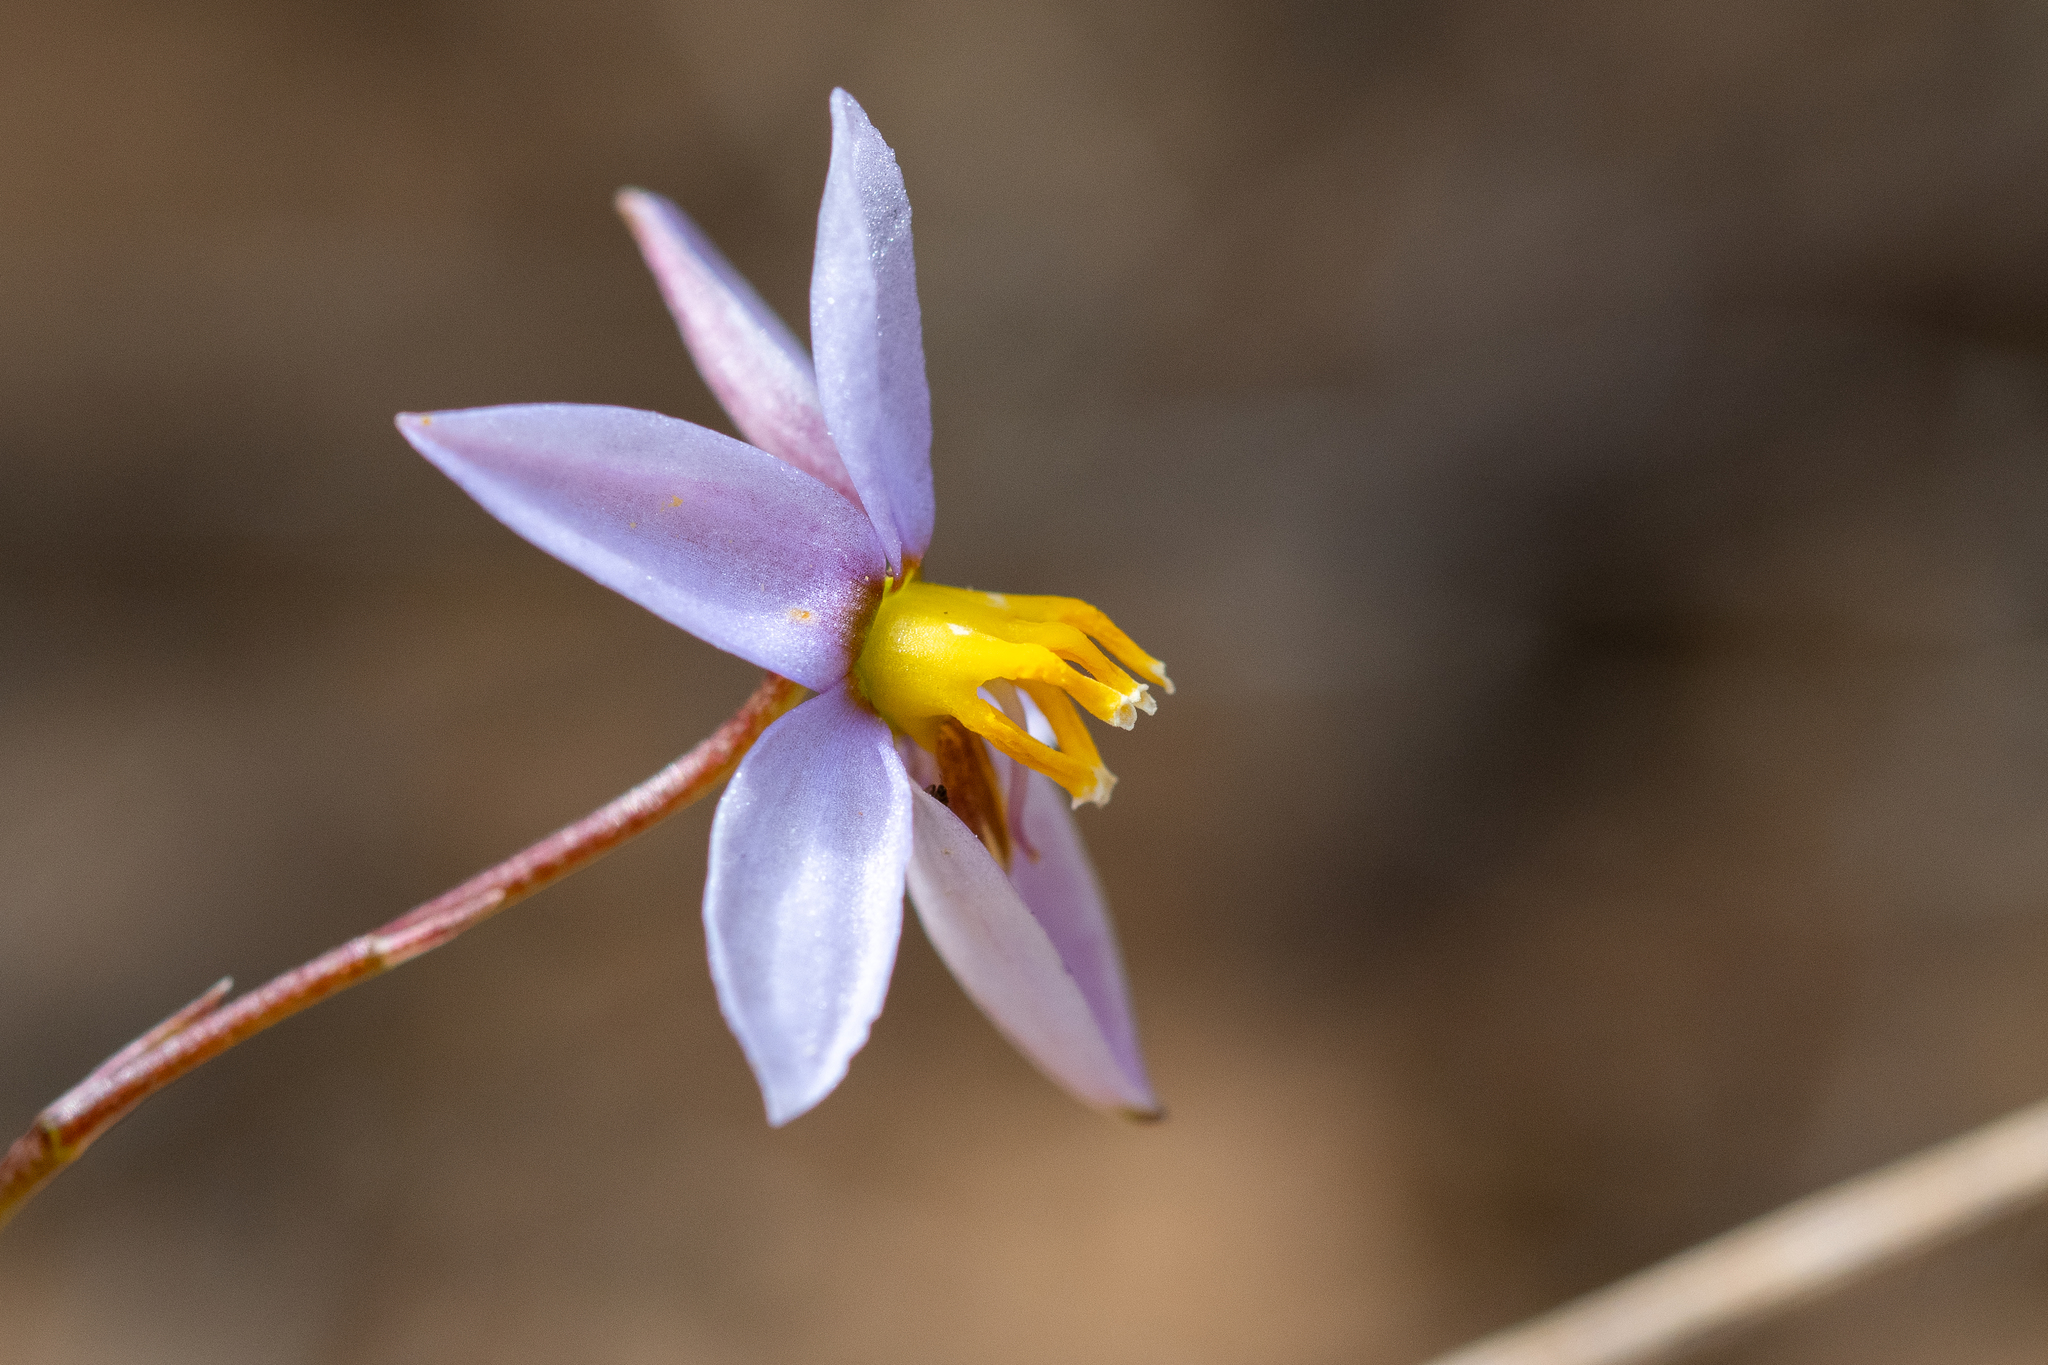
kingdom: Plantae
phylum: Tracheophyta
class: Liliopsida
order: Asparagales
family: Tecophilaeaceae
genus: Cyanella
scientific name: Cyanella hyacinthoides
